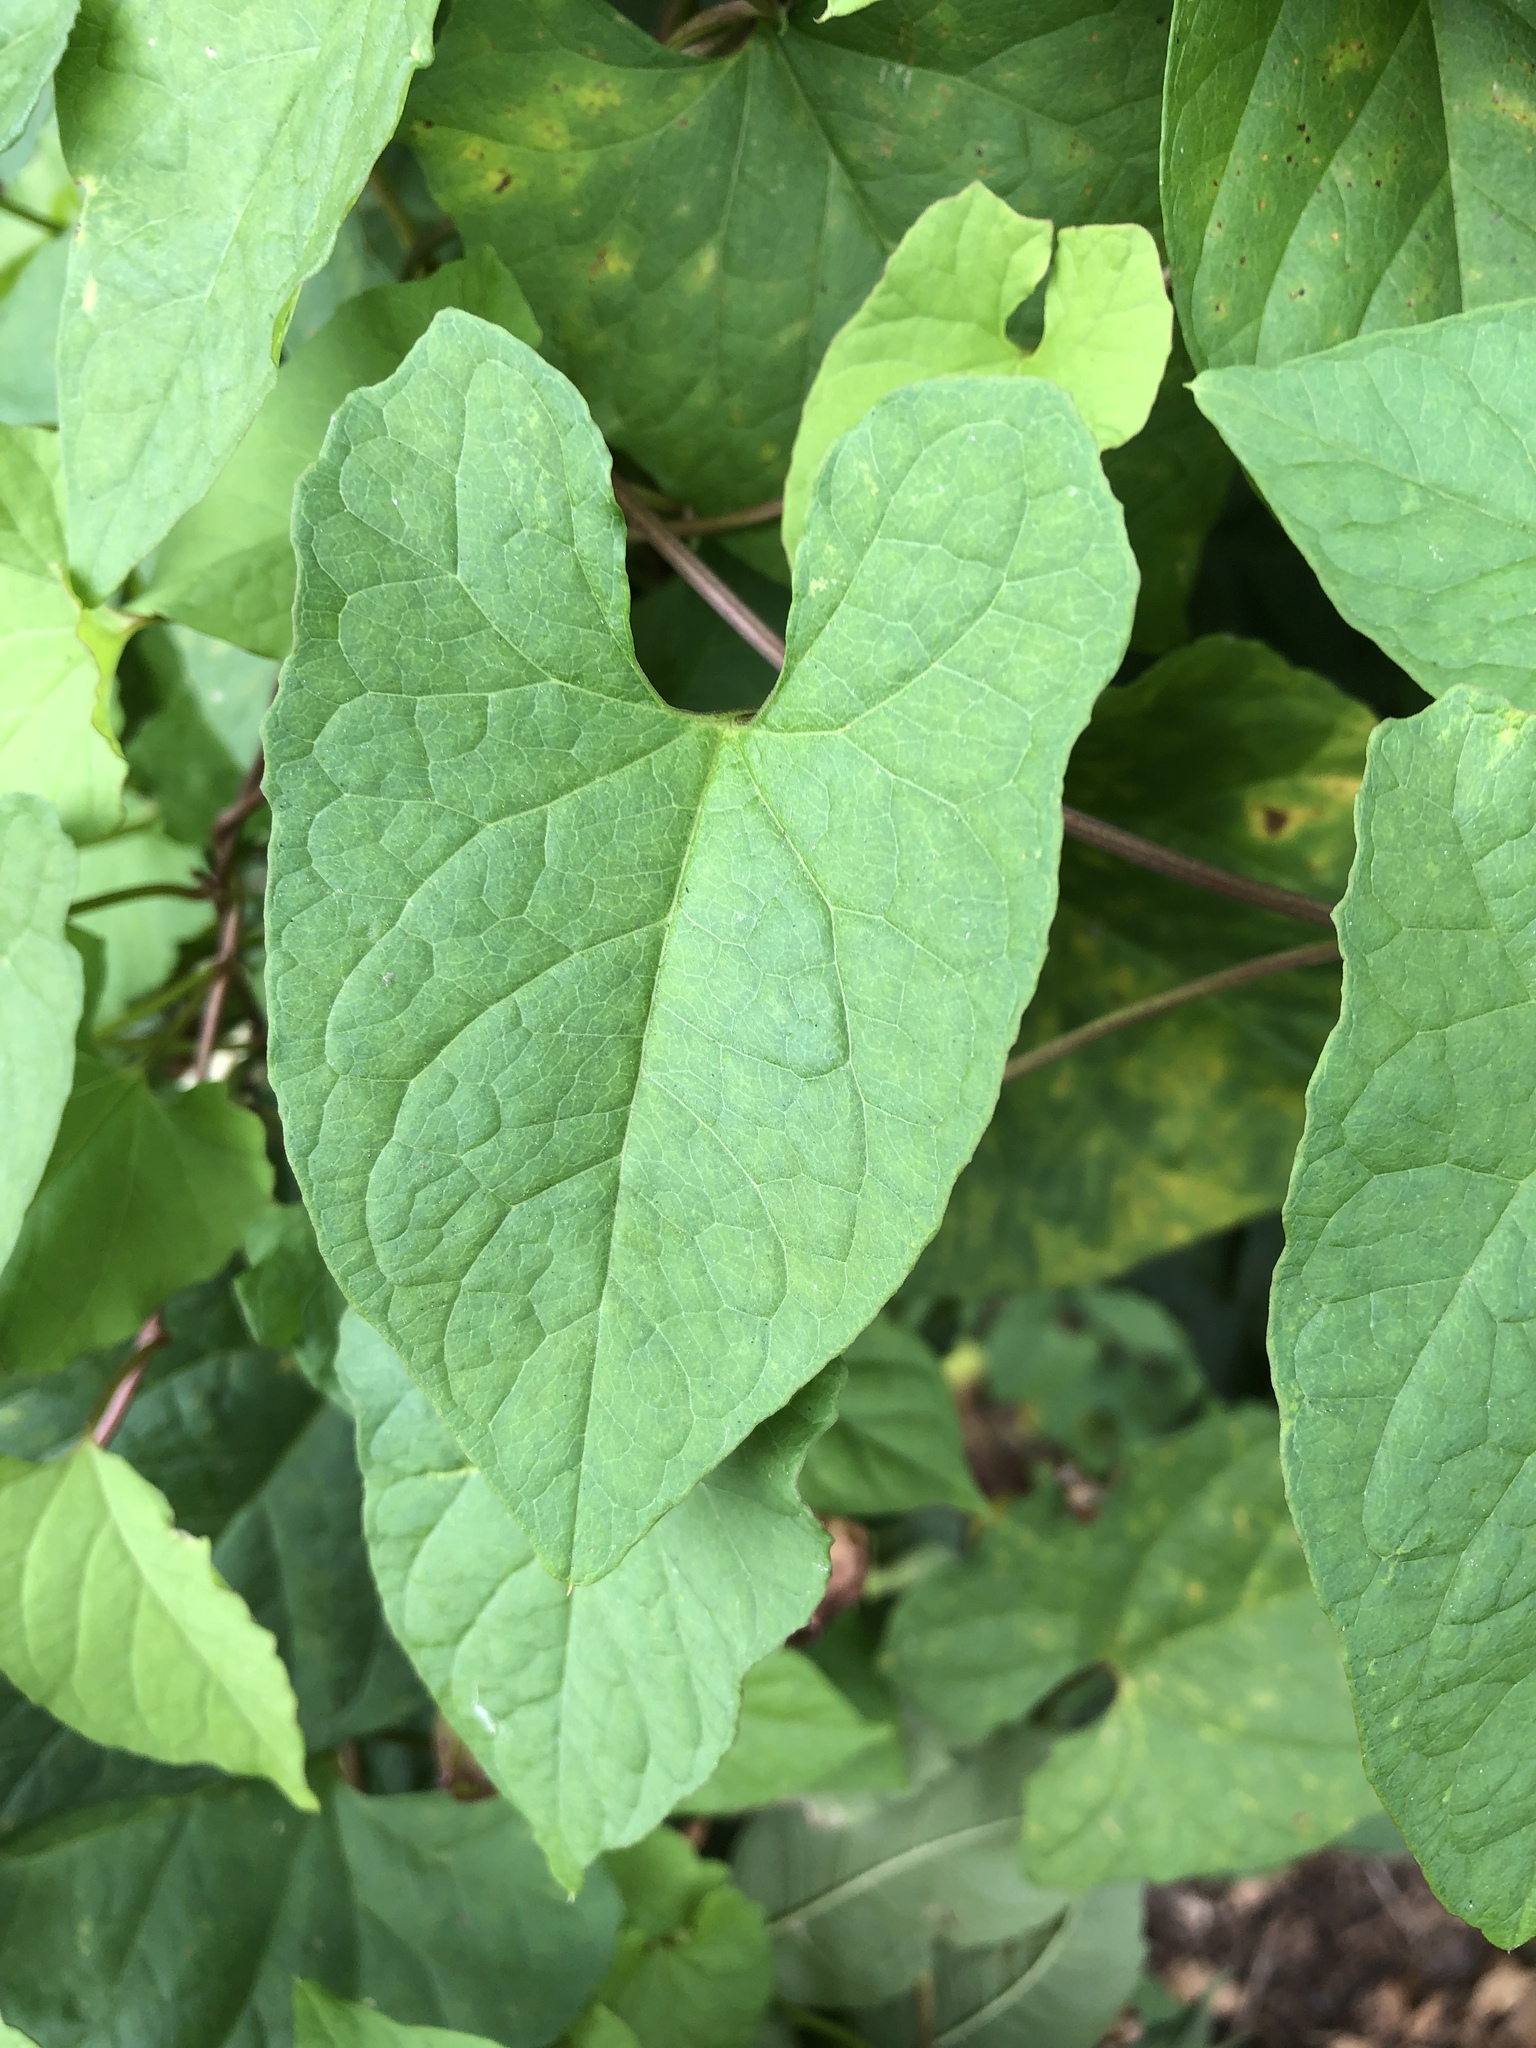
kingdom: Plantae
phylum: Tracheophyta
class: Magnoliopsida
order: Solanales
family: Convolvulaceae
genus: Calystegia
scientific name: Calystegia silvatica
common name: Large bindweed
